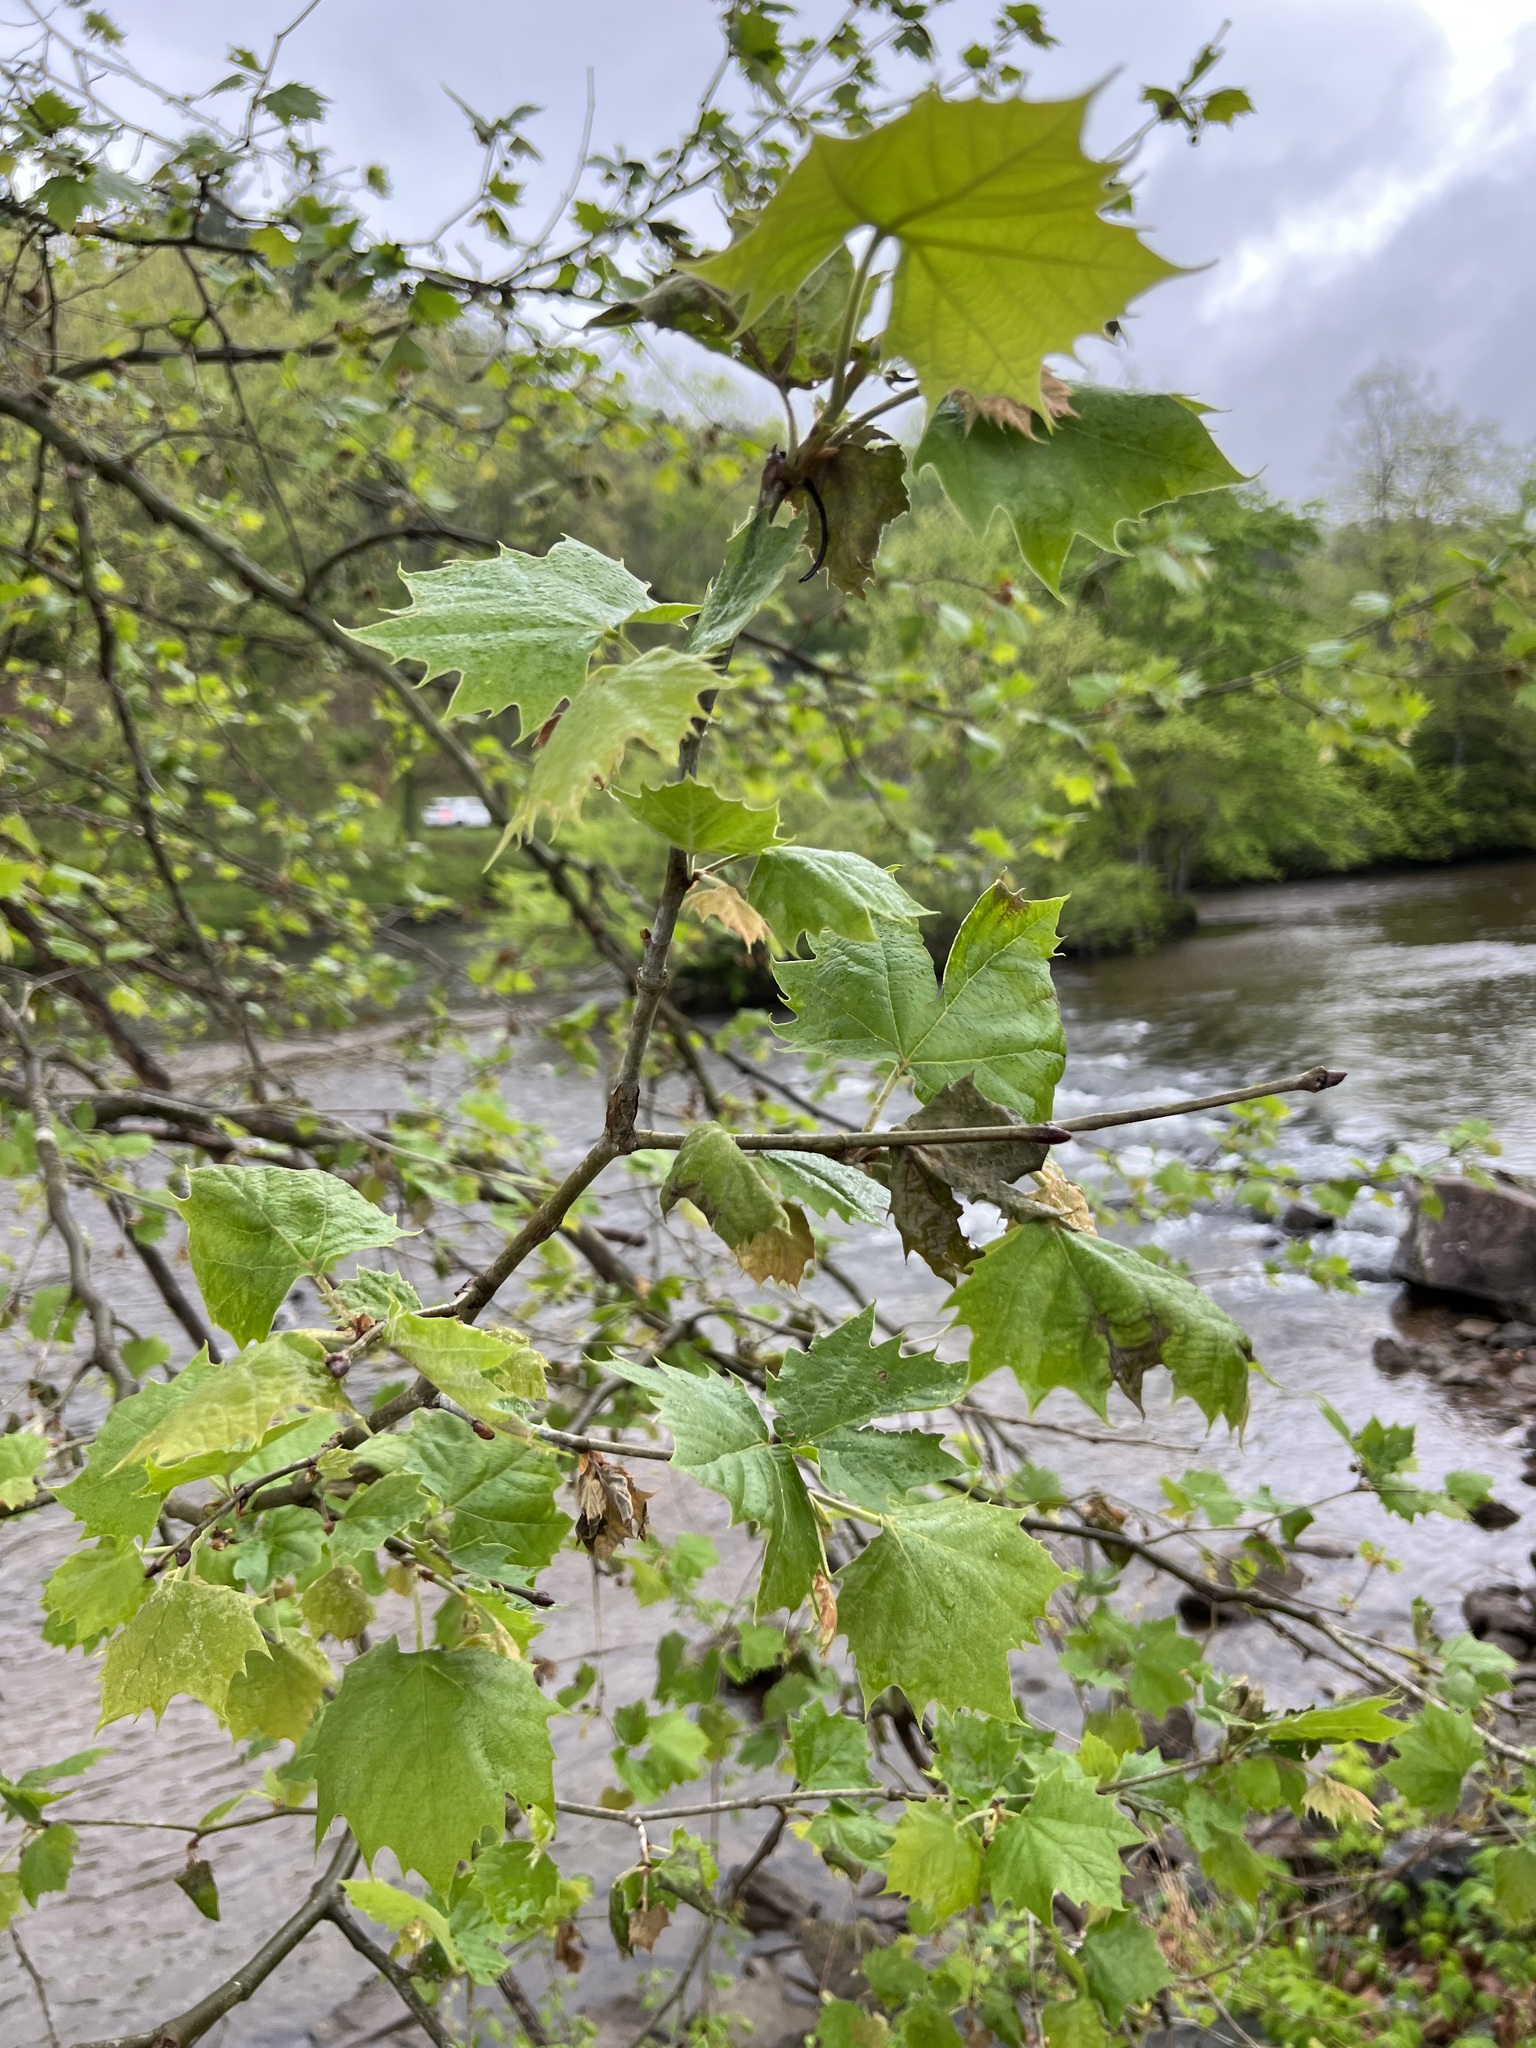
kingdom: Plantae
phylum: Tracheophyta
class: Magnoliopsida
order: Proteales
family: Platanaceae
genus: Platanus
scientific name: Platanus occidentalis
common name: American sycamore
